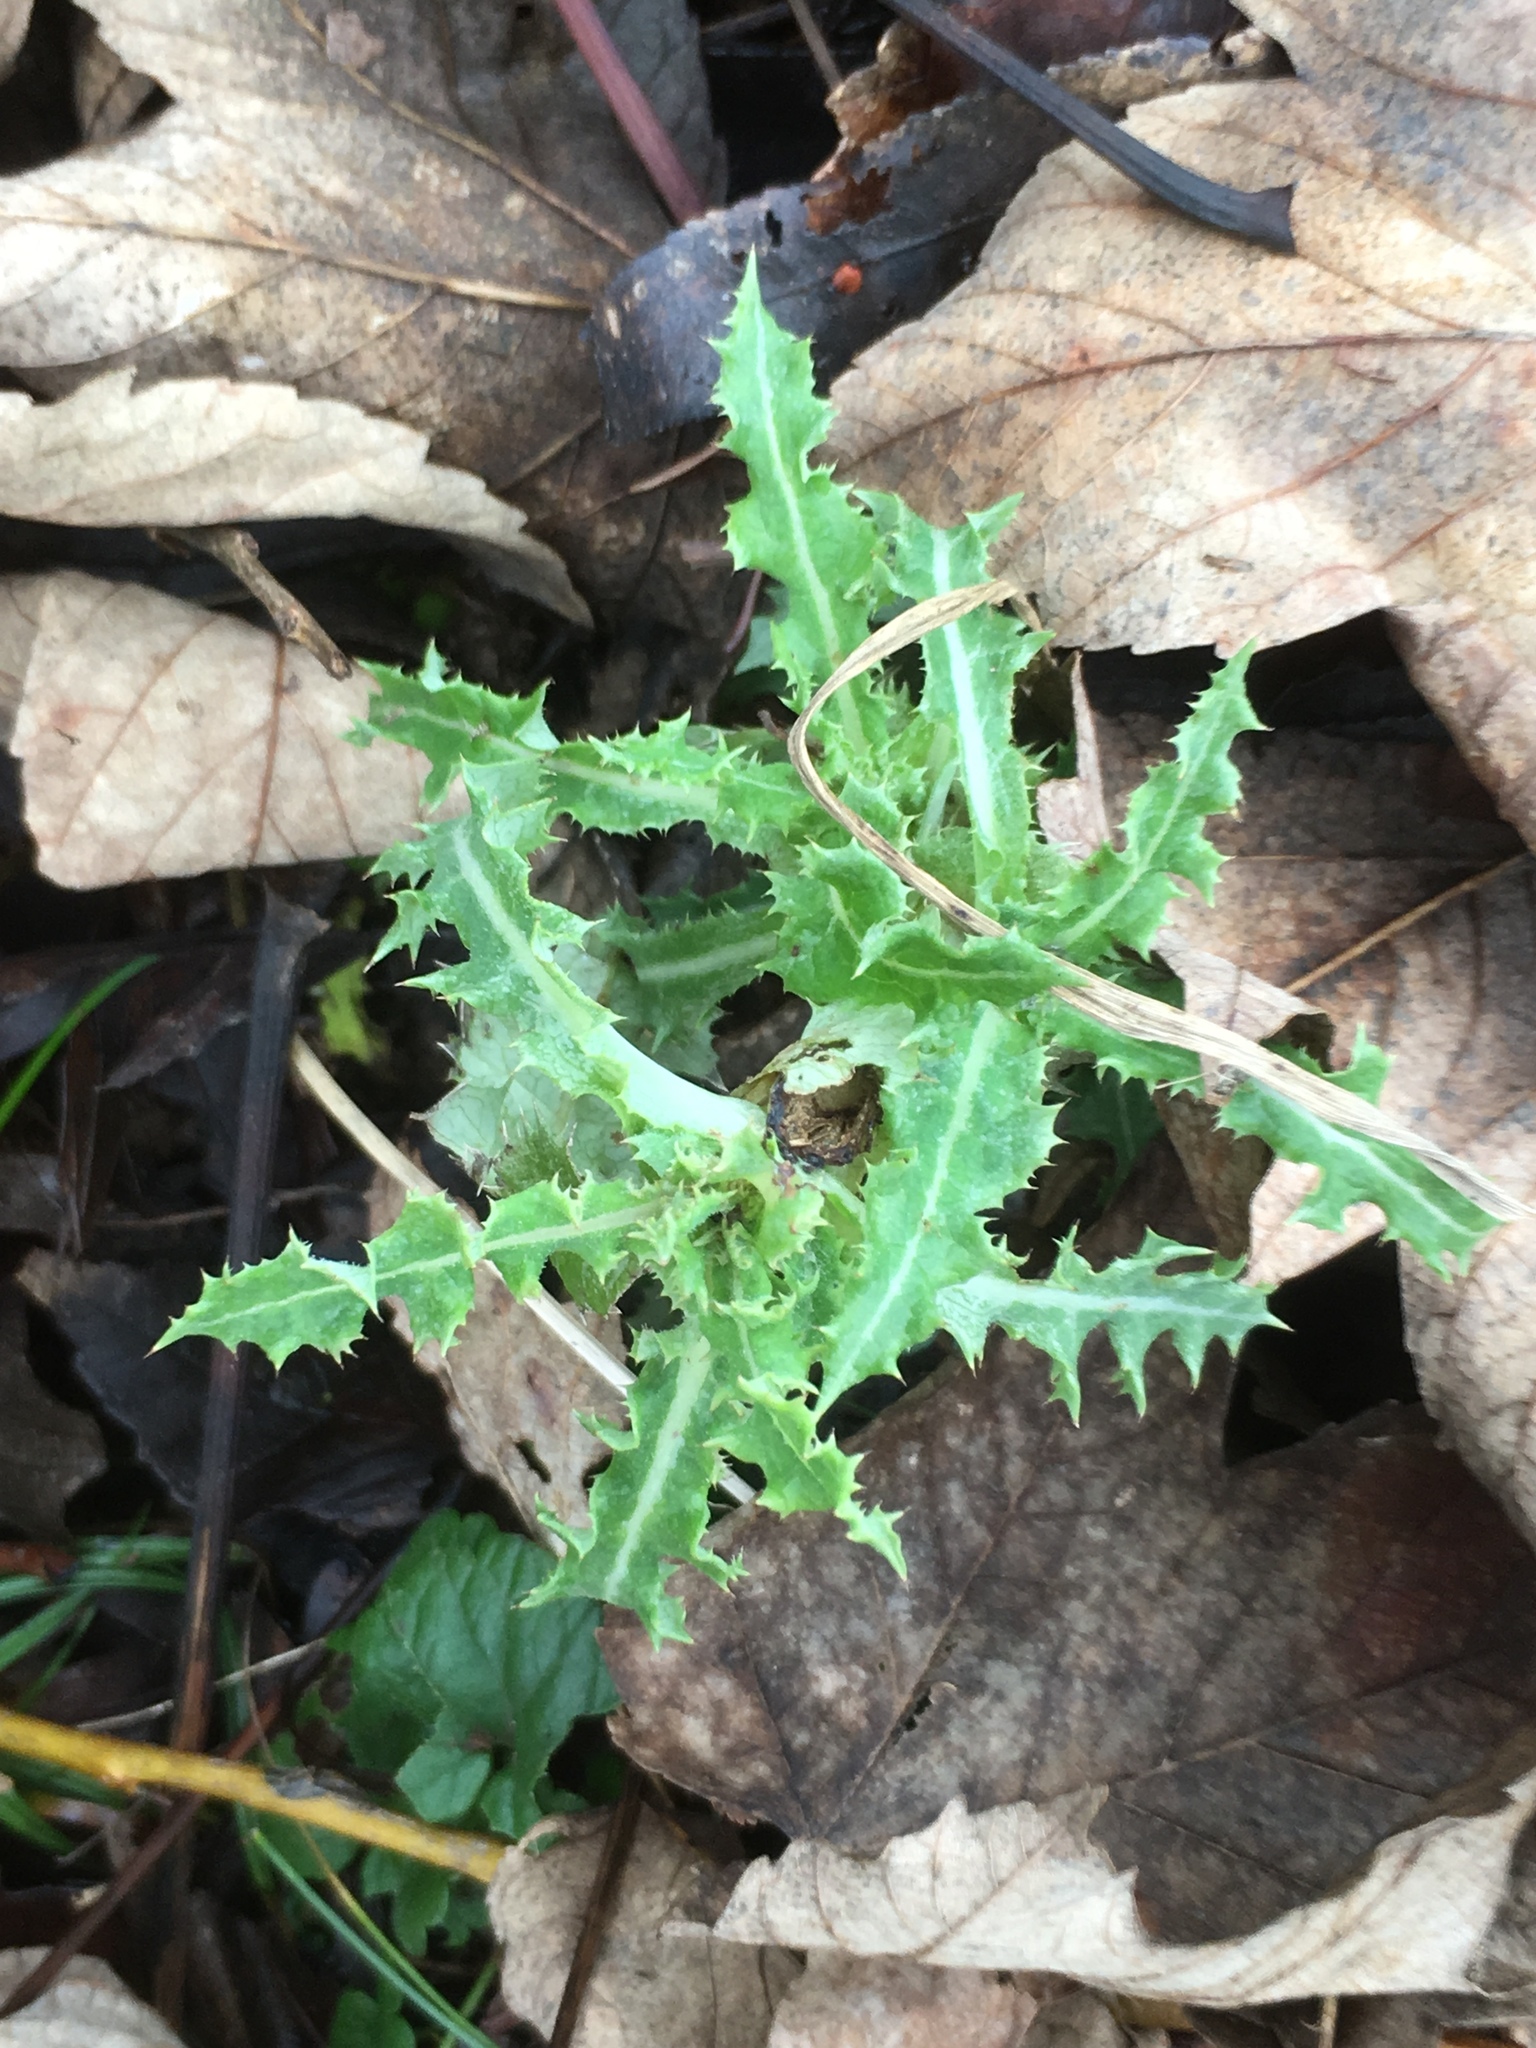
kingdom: Plantae
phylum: Tracheophyta
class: Magnoliopsida
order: Asterales
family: Asteraceae
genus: Sonchus
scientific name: Sonchus asper
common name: Prickly sow-thistle
